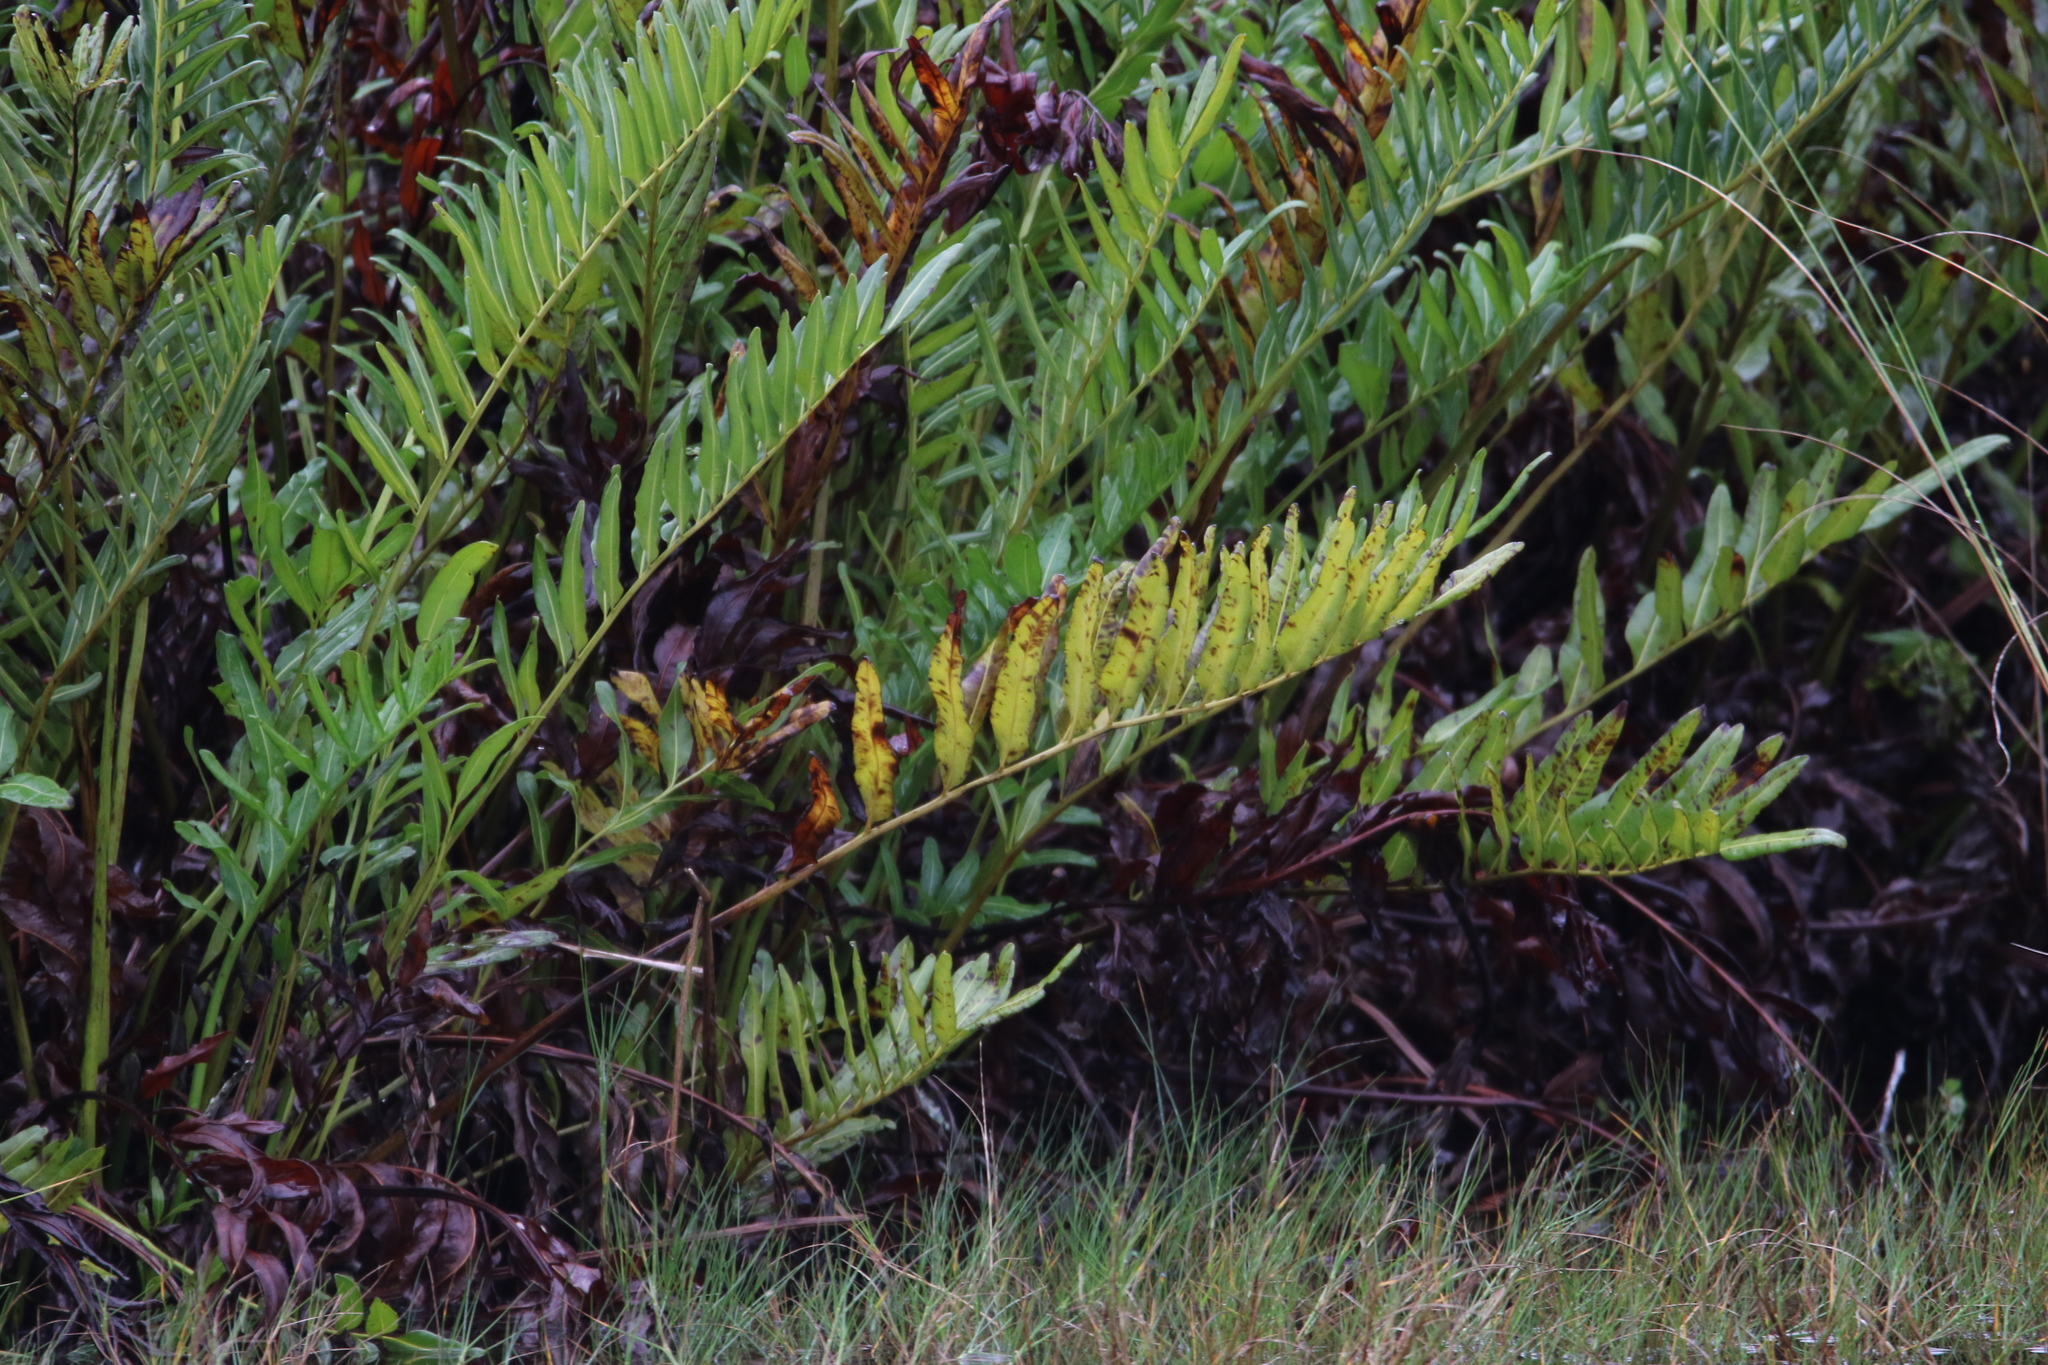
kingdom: Plantae
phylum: Tracheophyta
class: Polypodiopsida
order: Polypodiales
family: Pteridaceae
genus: Acrostichum
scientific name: Acrostichum danaeifolium
